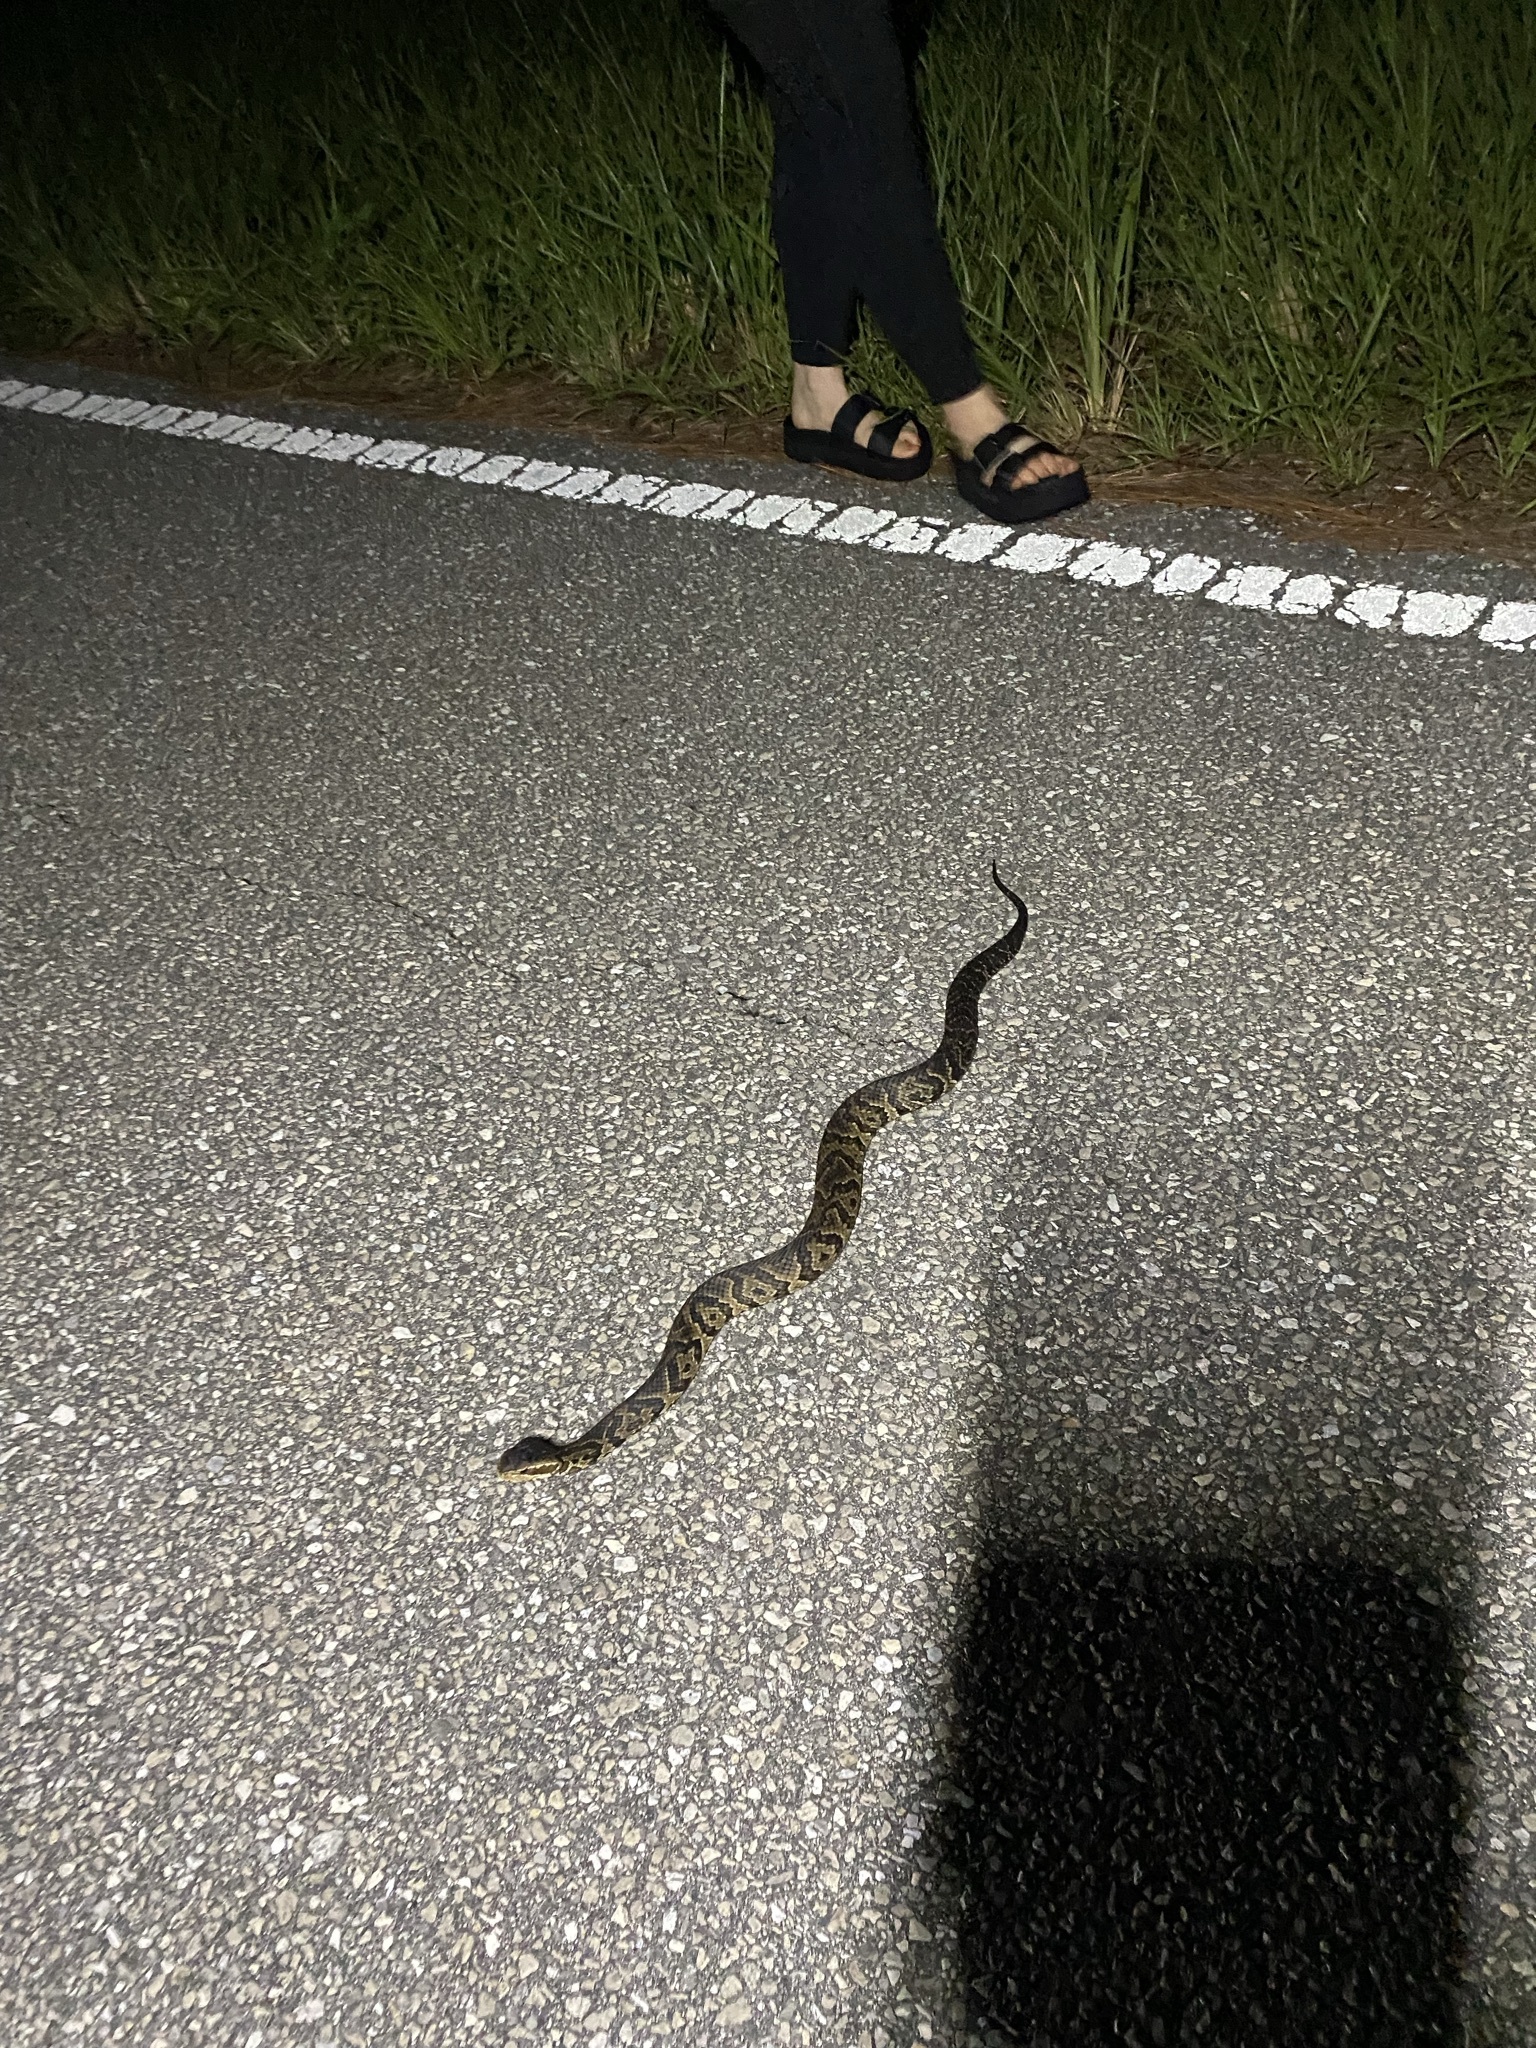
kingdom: Animalia
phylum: Chordata
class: Squamata
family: Viperidae
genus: Agkistrodon
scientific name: Agkistrodon conanti
